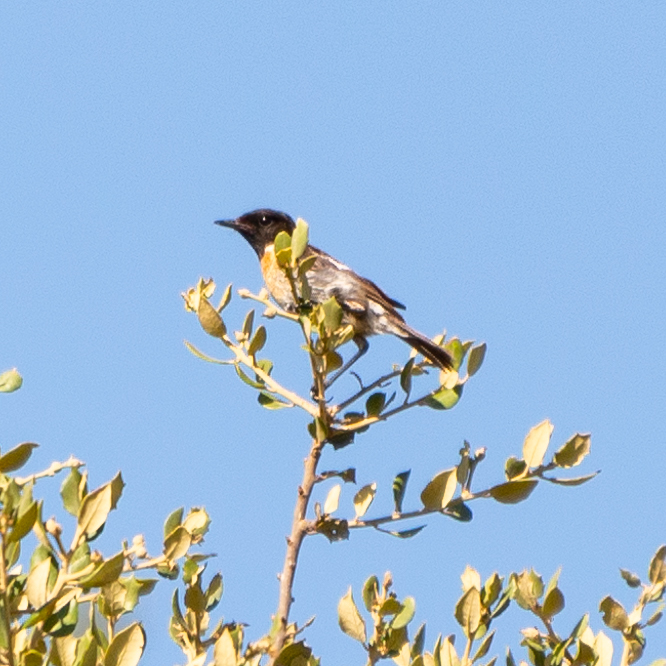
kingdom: Animalia
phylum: Chordata
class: Aves
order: Passeriformes
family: Muscicapidae
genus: Saxicola
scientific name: Saxicola rubicola
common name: European stonechat
